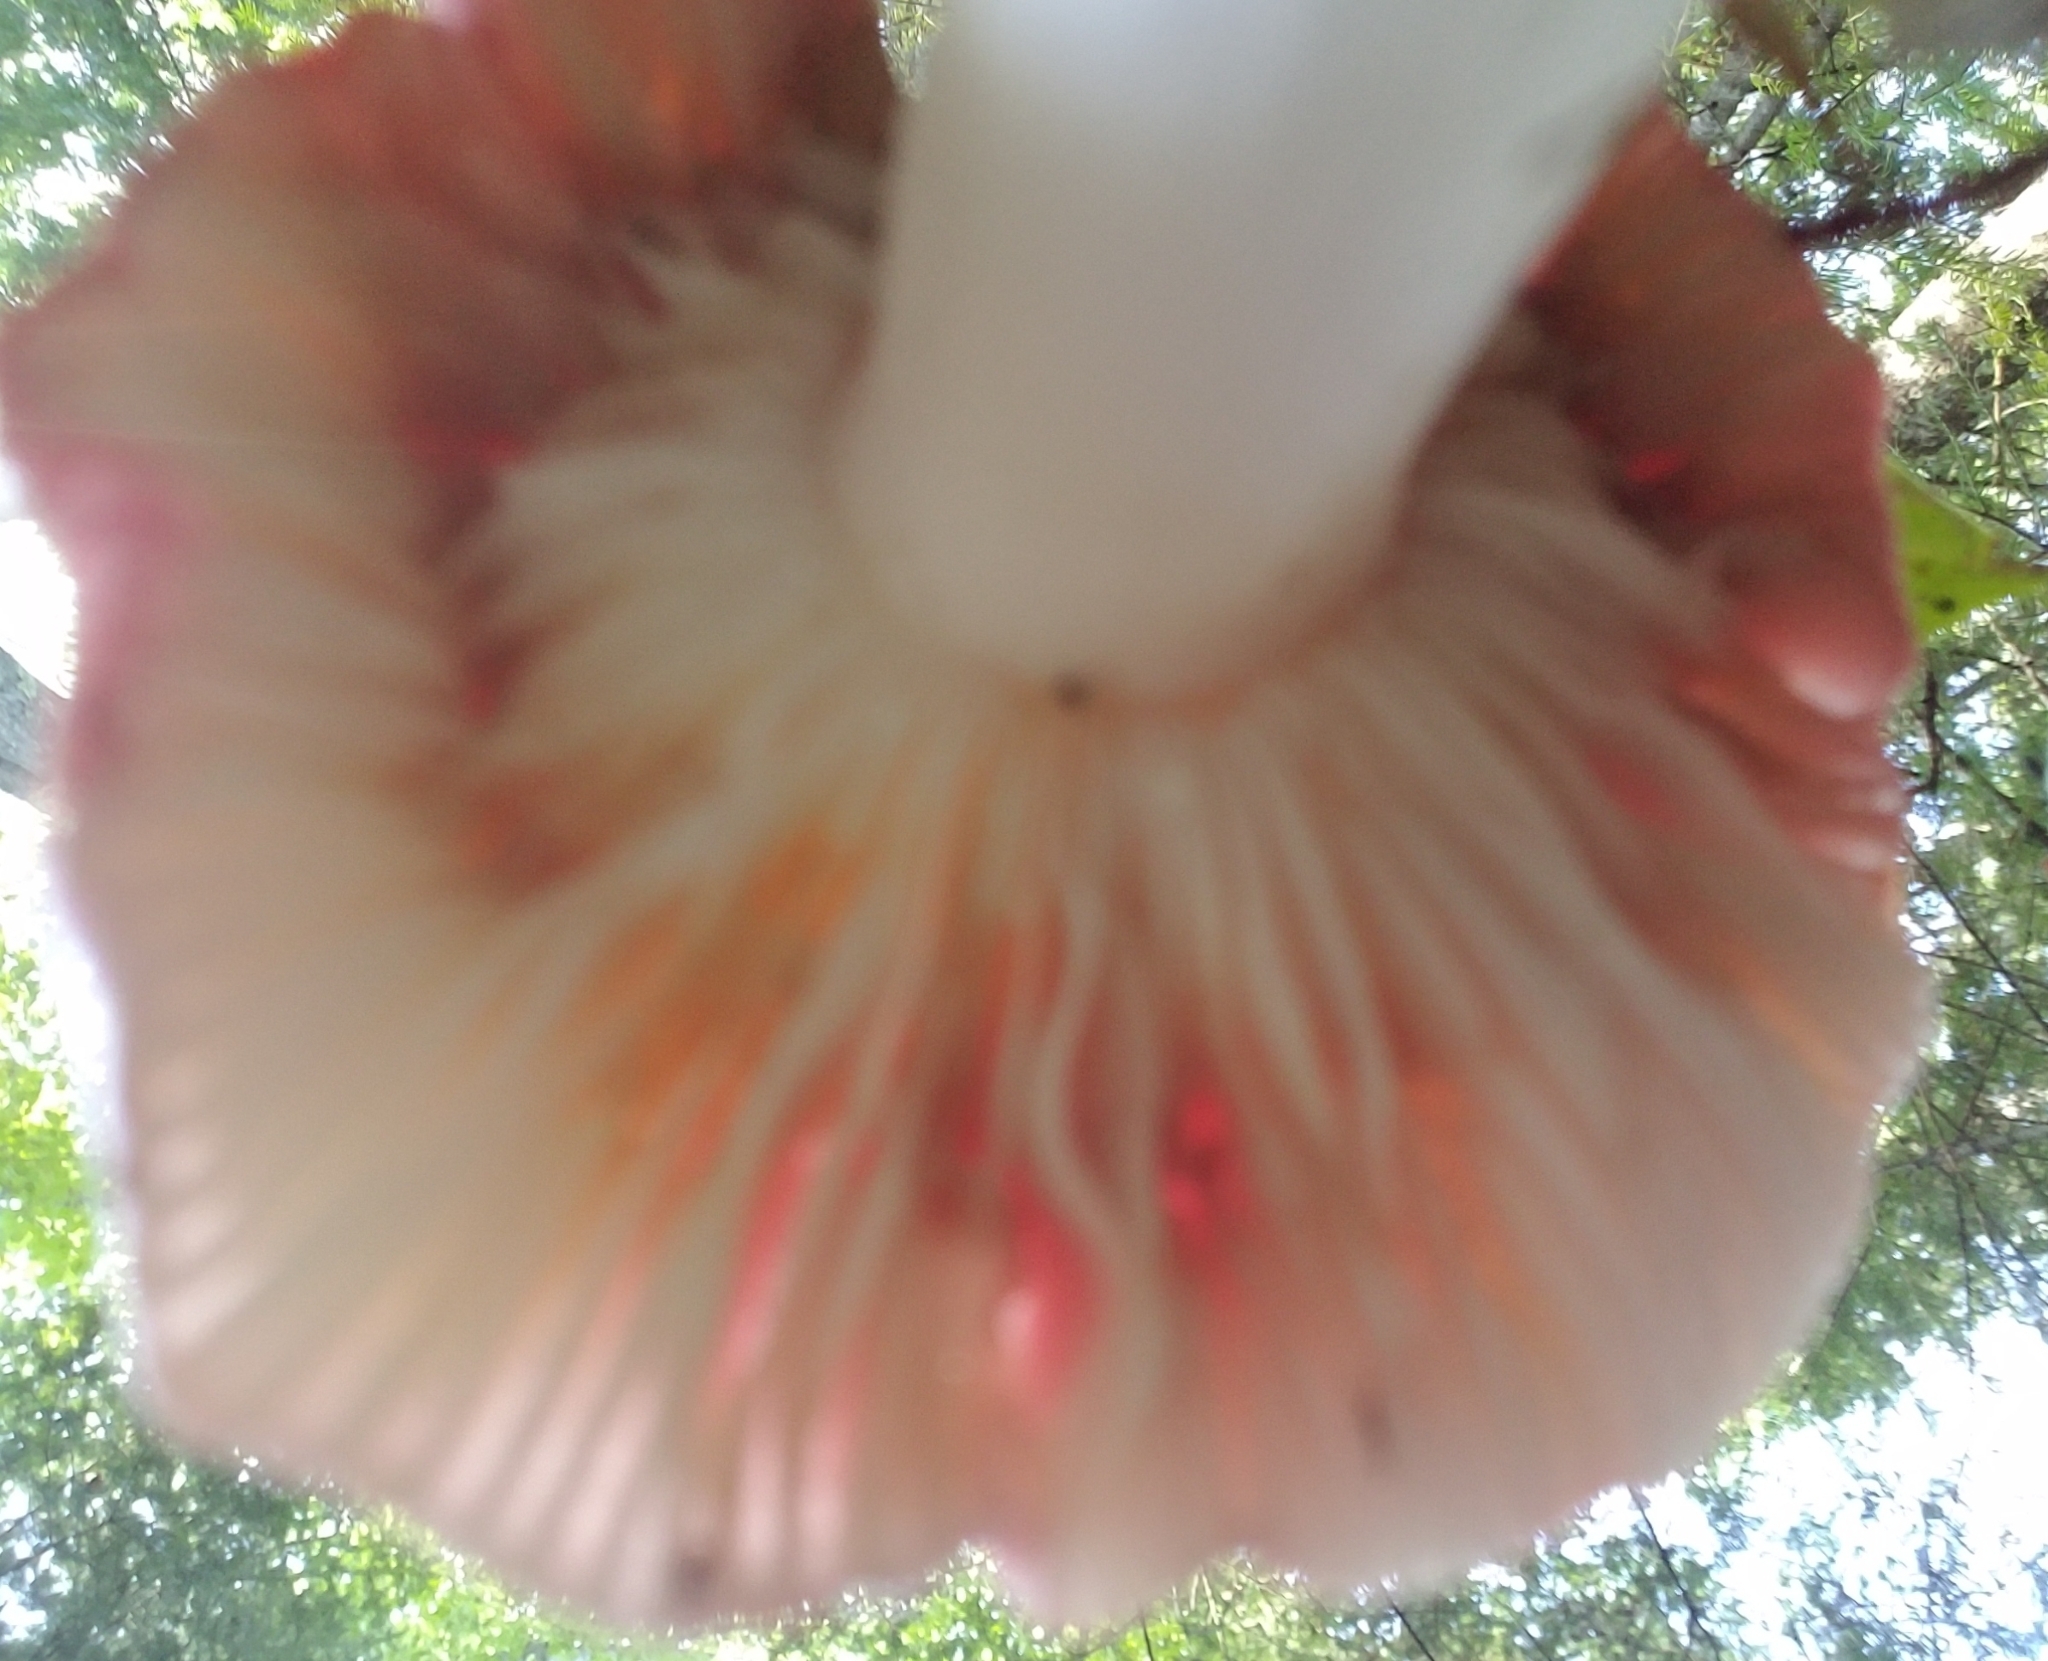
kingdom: Fungi
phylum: Basidiomycota
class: Agaricomycetes
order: Russulales
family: Russulaceae
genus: Russula
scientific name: Russula
